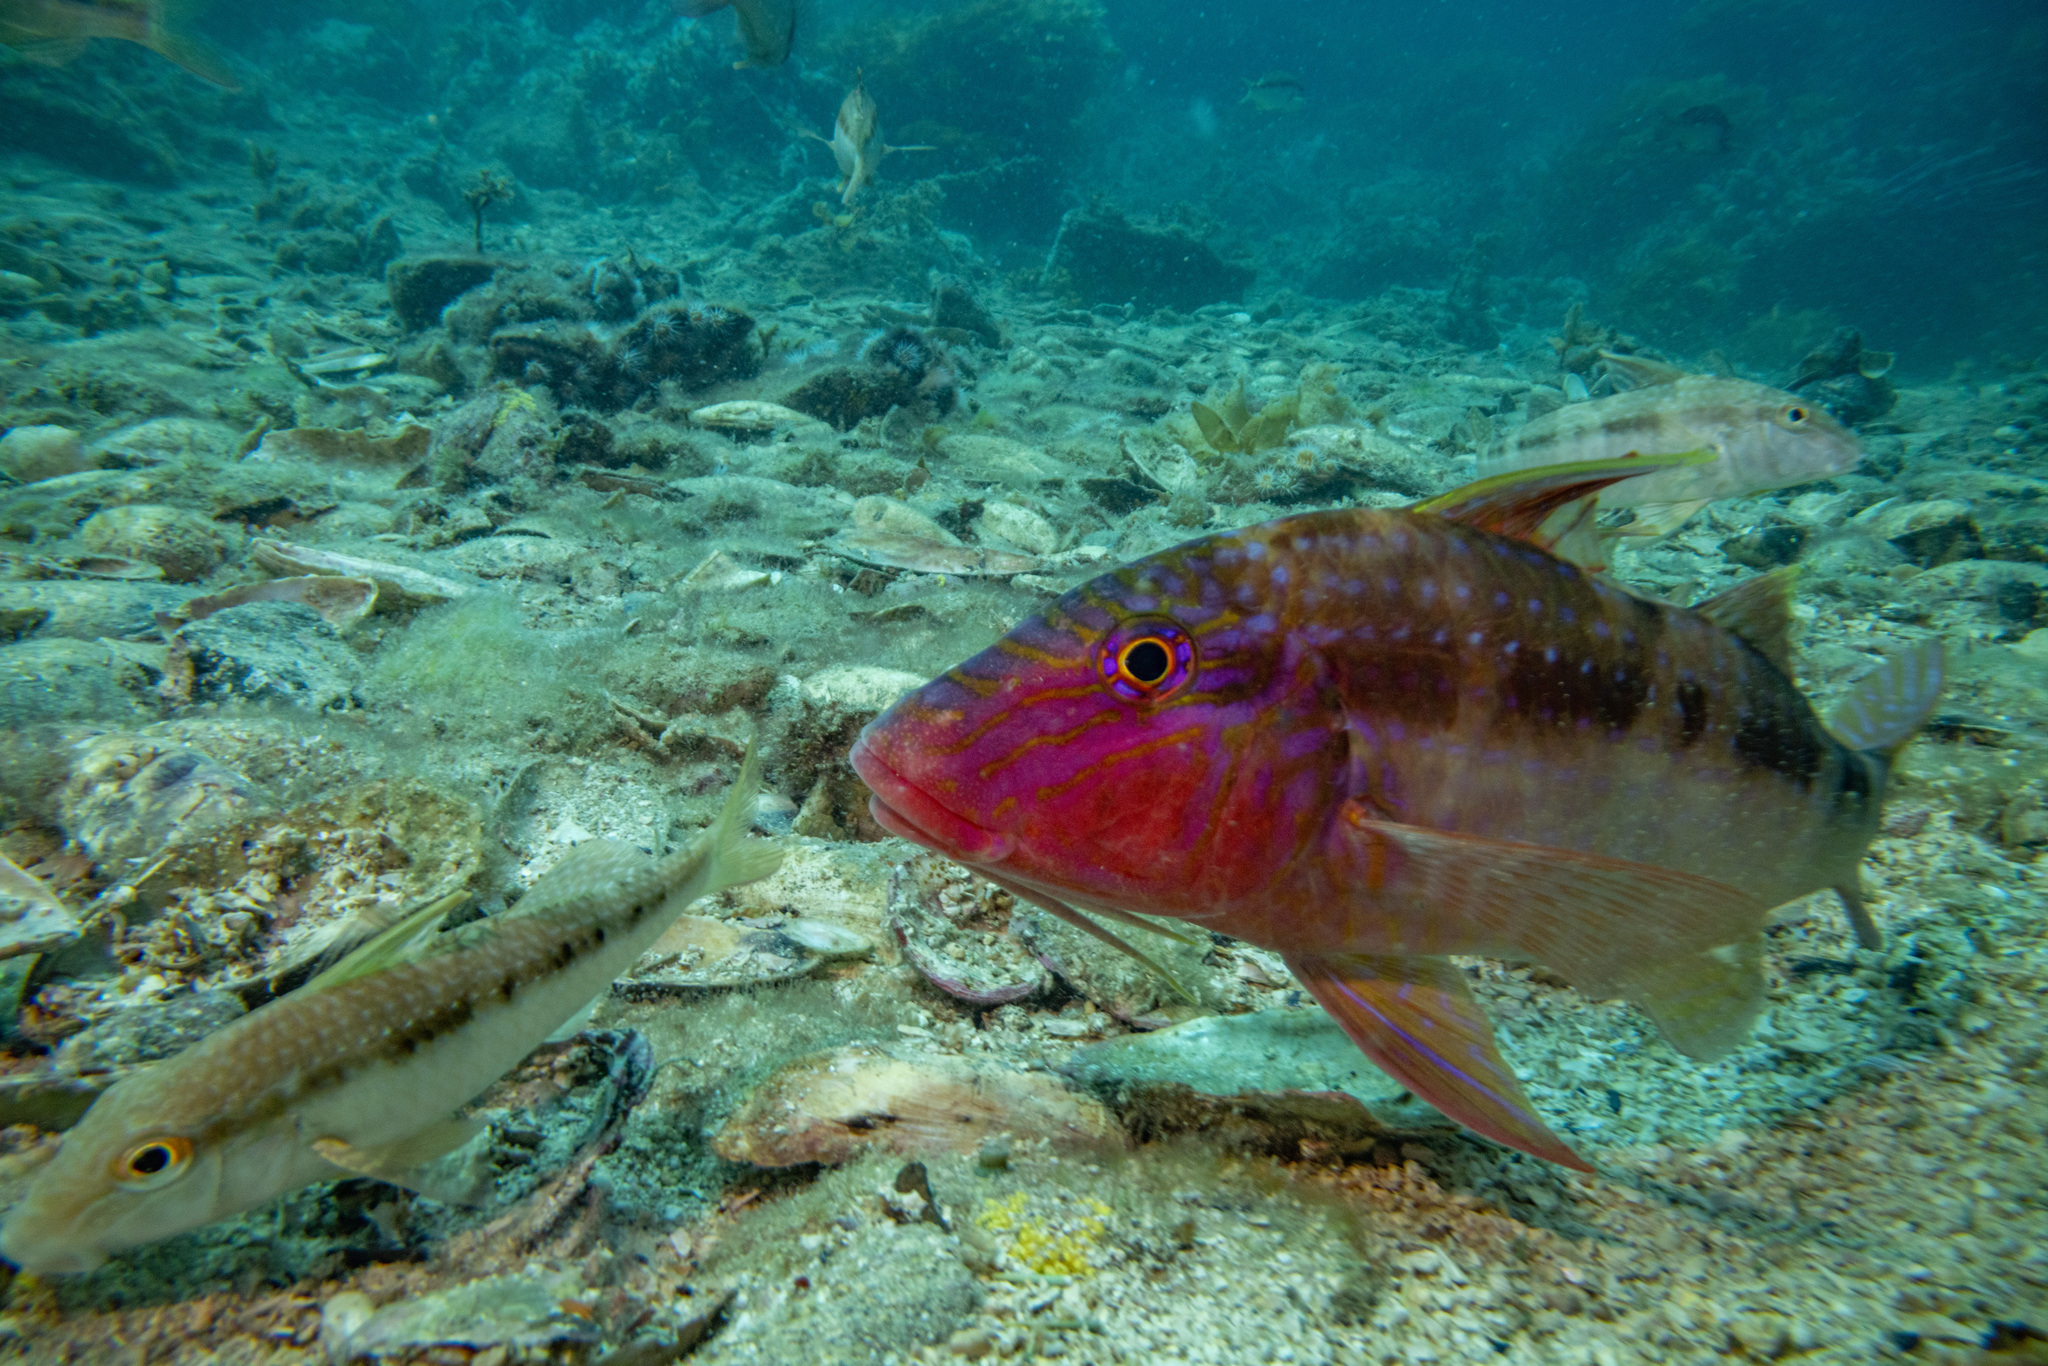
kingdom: Animalia
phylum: Chordata
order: Perciformes
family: Mullidae
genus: Upeneichthys
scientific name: Upeneichthys lineatus
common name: Red mullet
